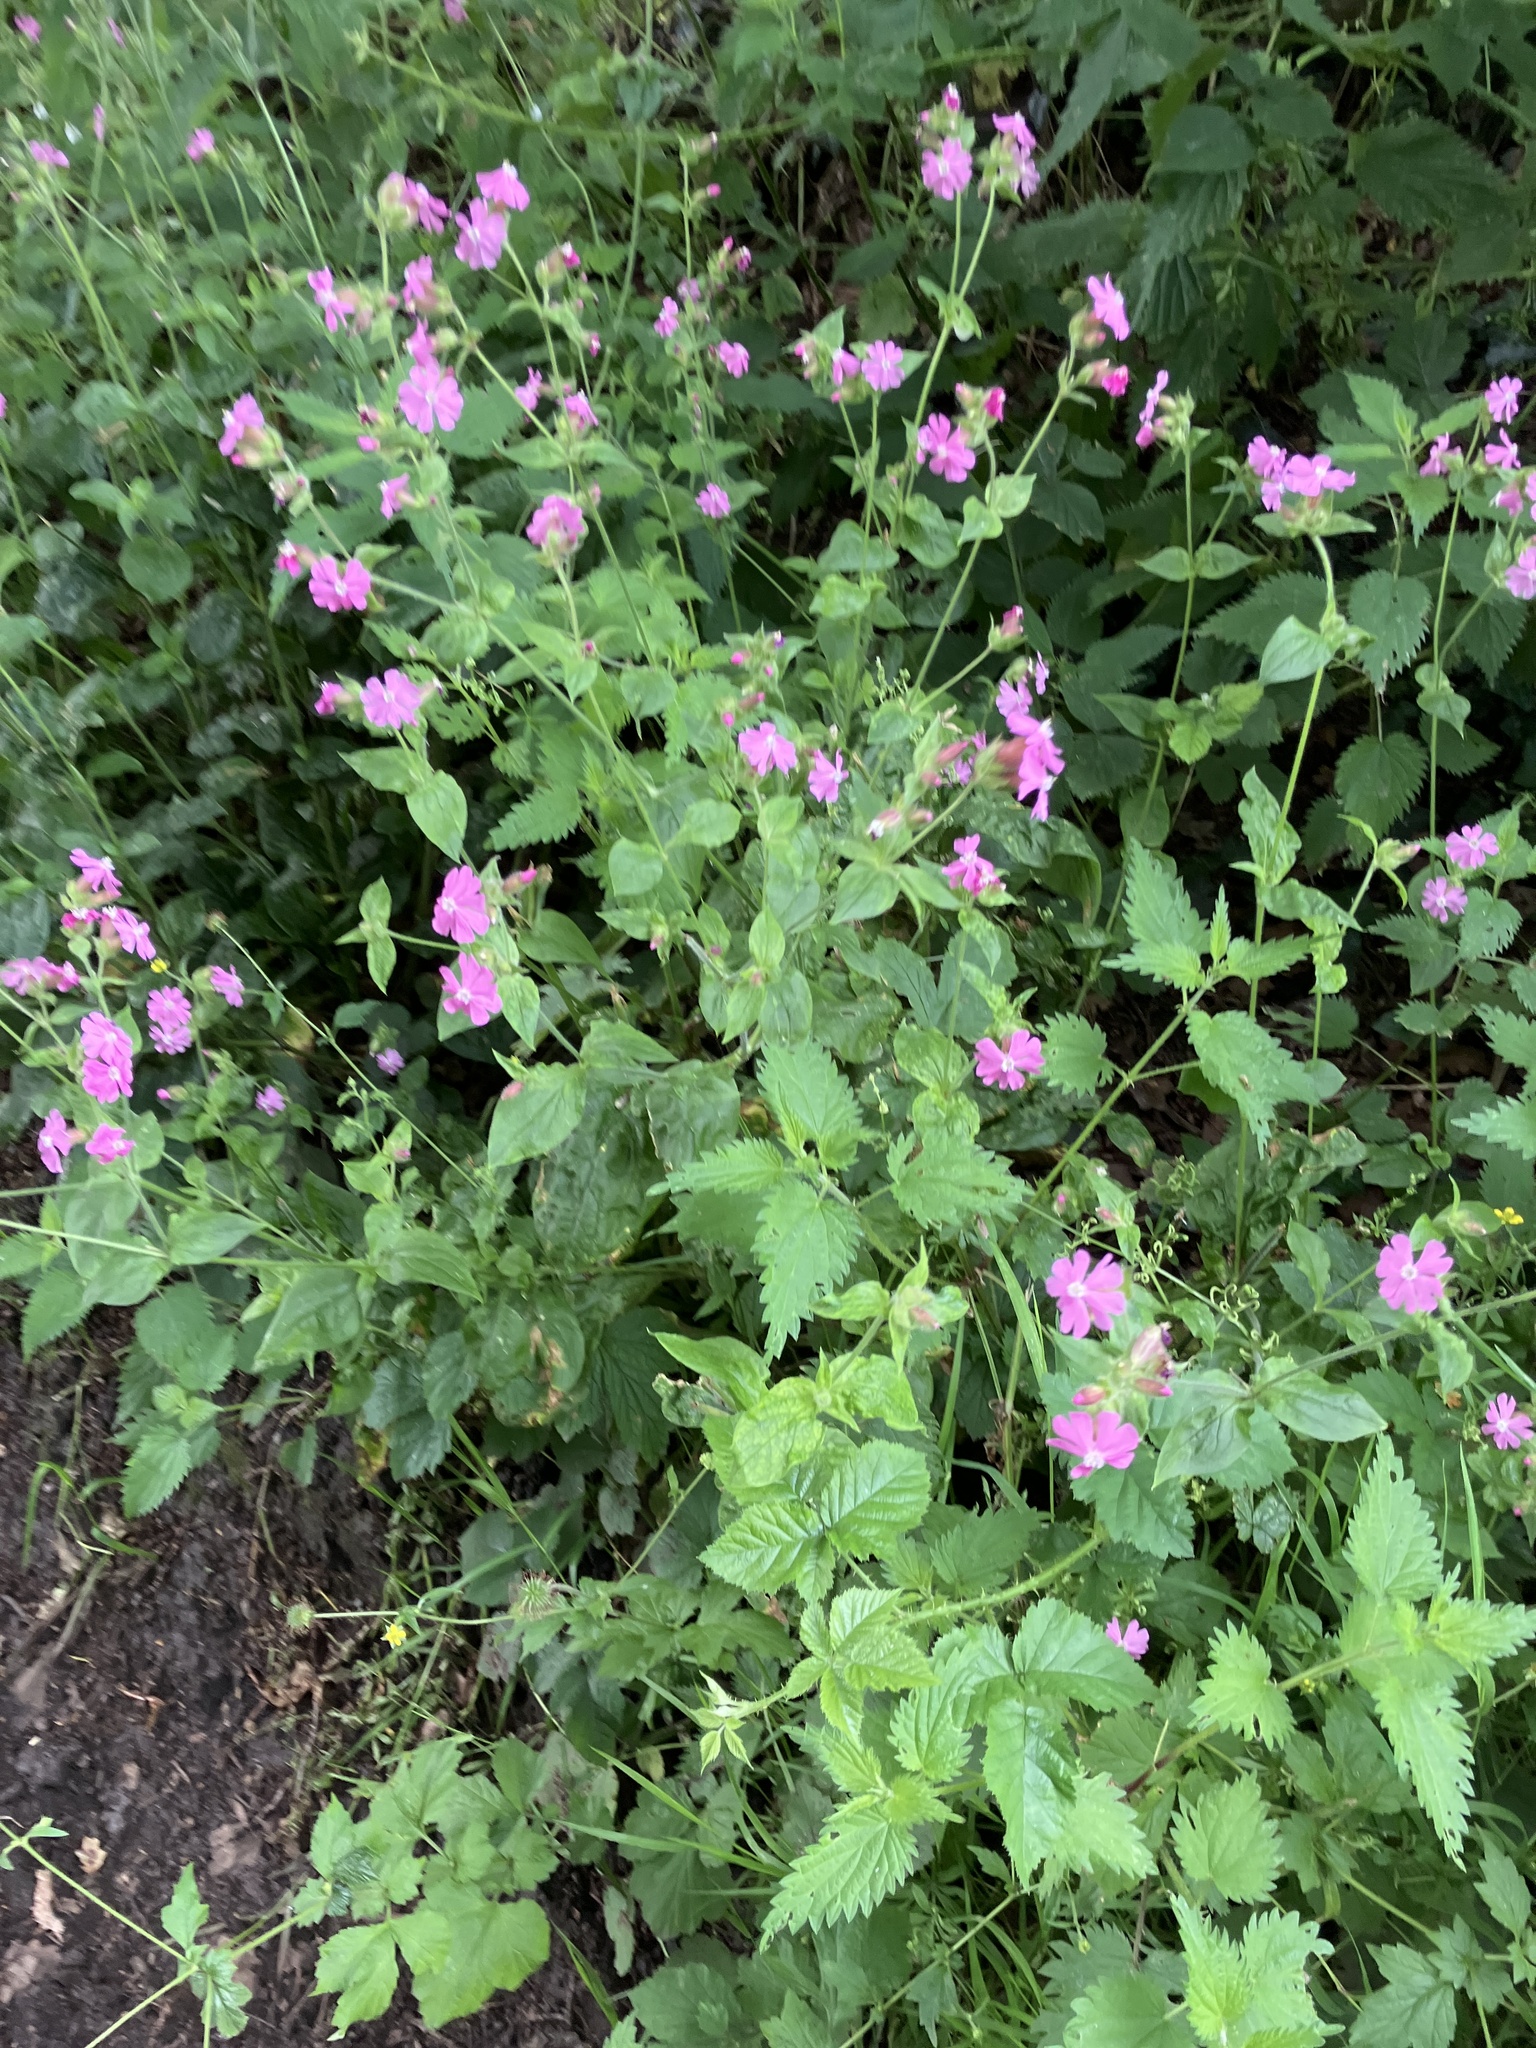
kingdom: Plantae
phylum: Tracheophyta
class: Magnoliopsida
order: Caryophyllales
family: Caryophyllaceae
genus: Silene
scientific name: Silene dioica
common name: Red campion
